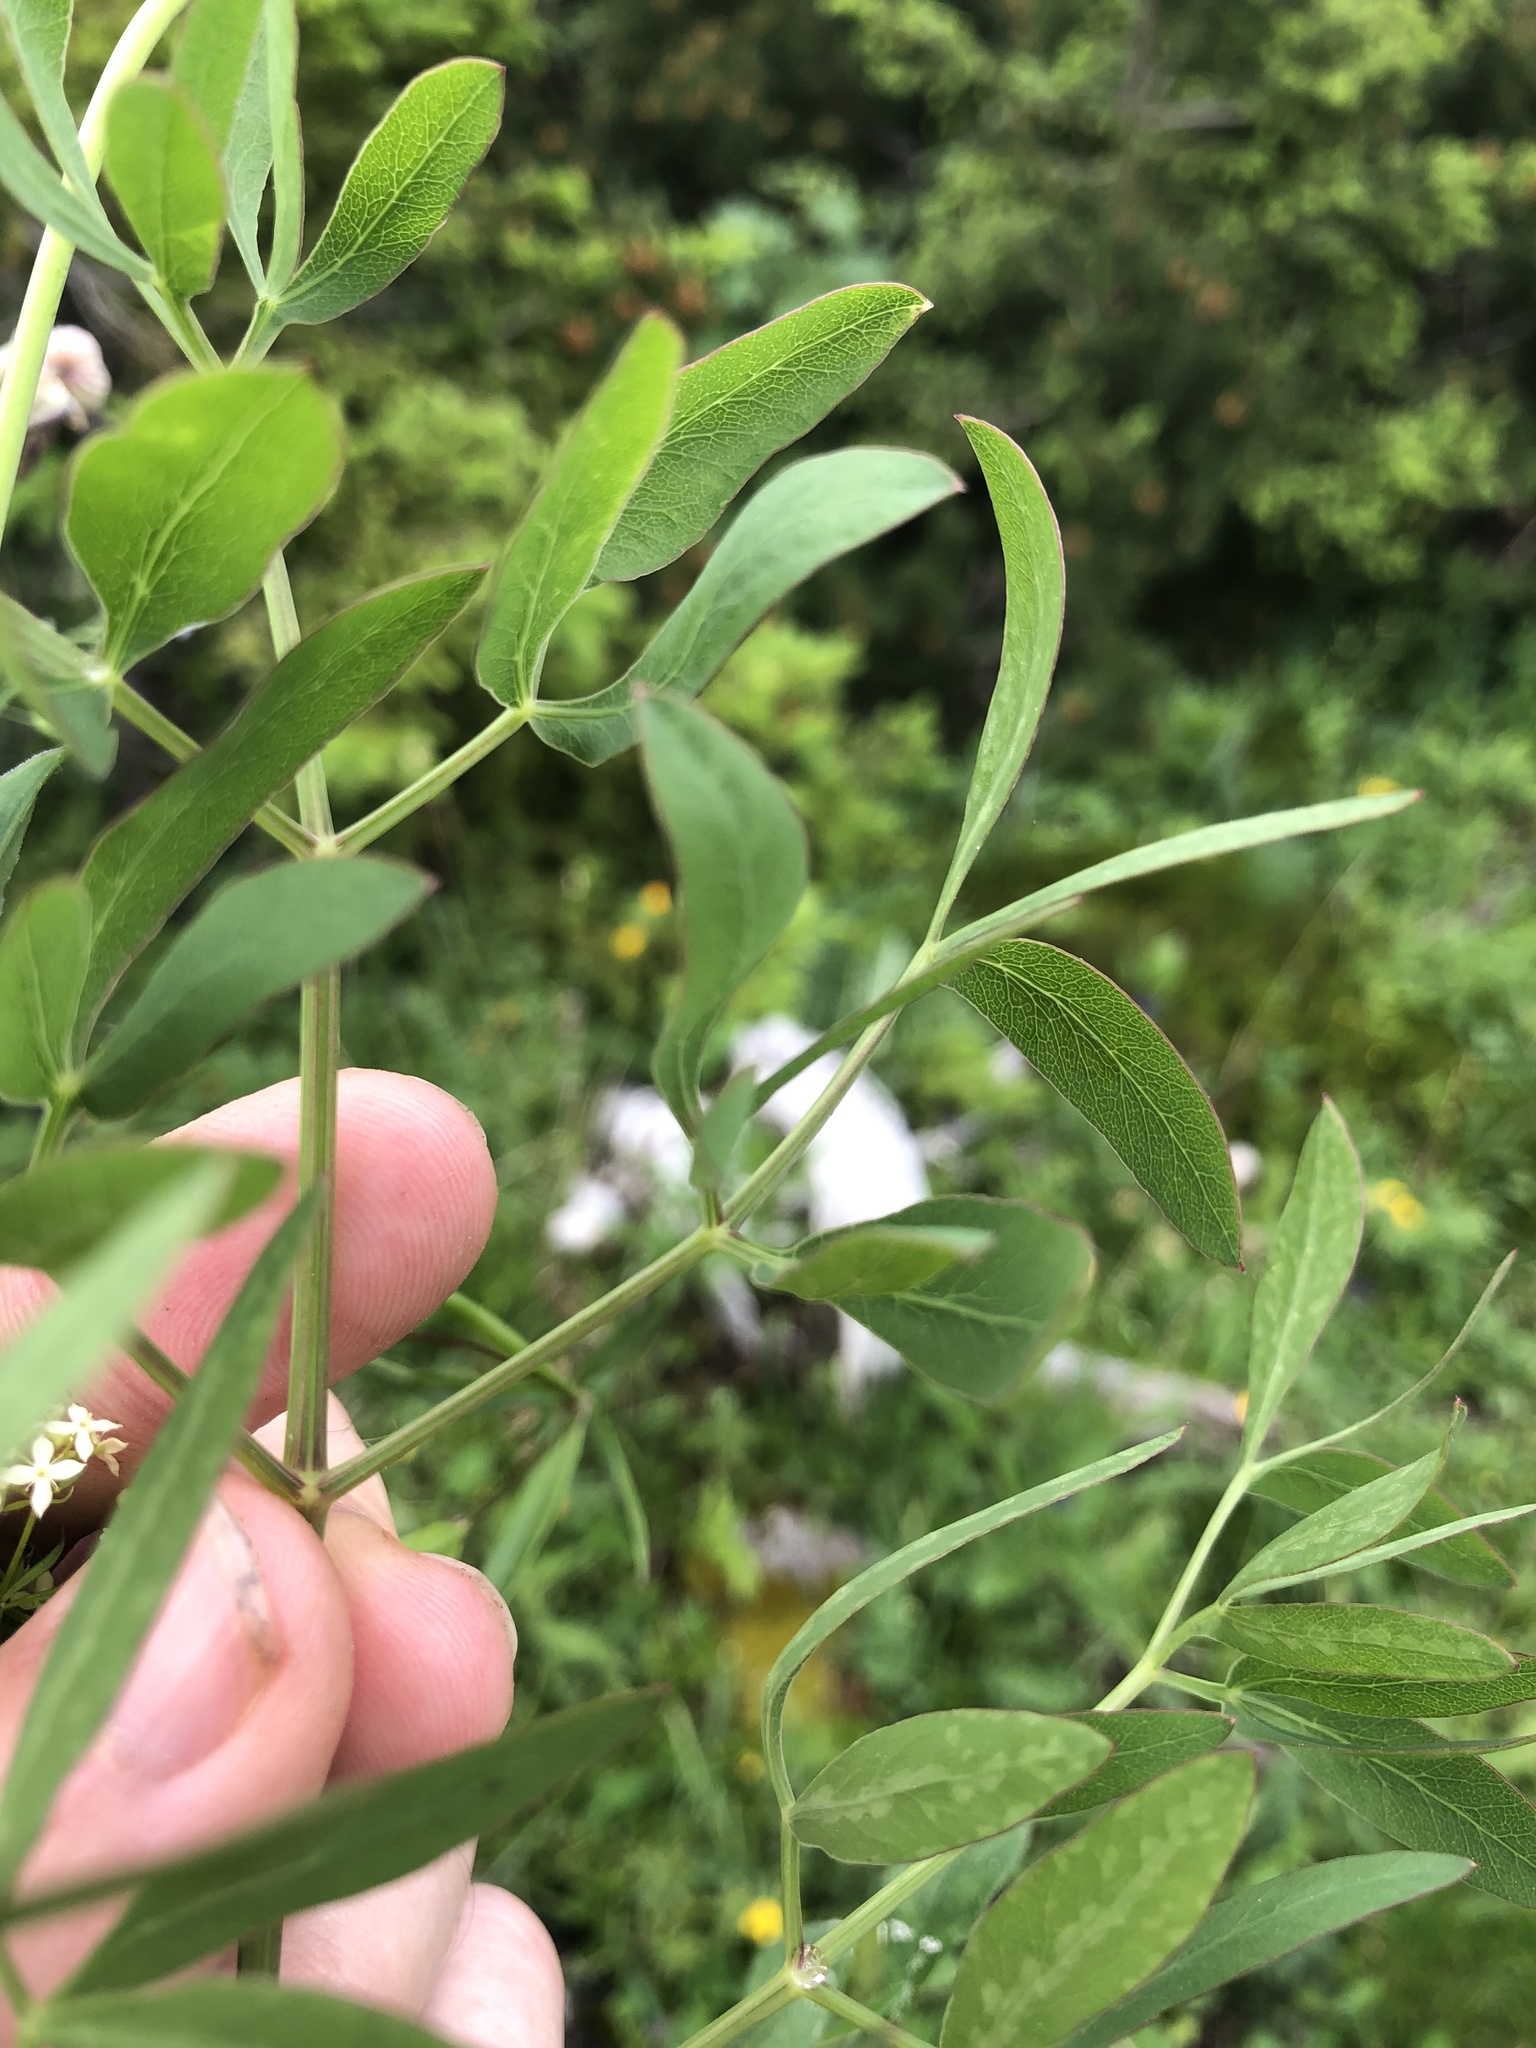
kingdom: Plantae
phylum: Tracheophyta
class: Magnoliopsida
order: Apiales
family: Apiaceae
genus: Siler
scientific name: Siler montanum
